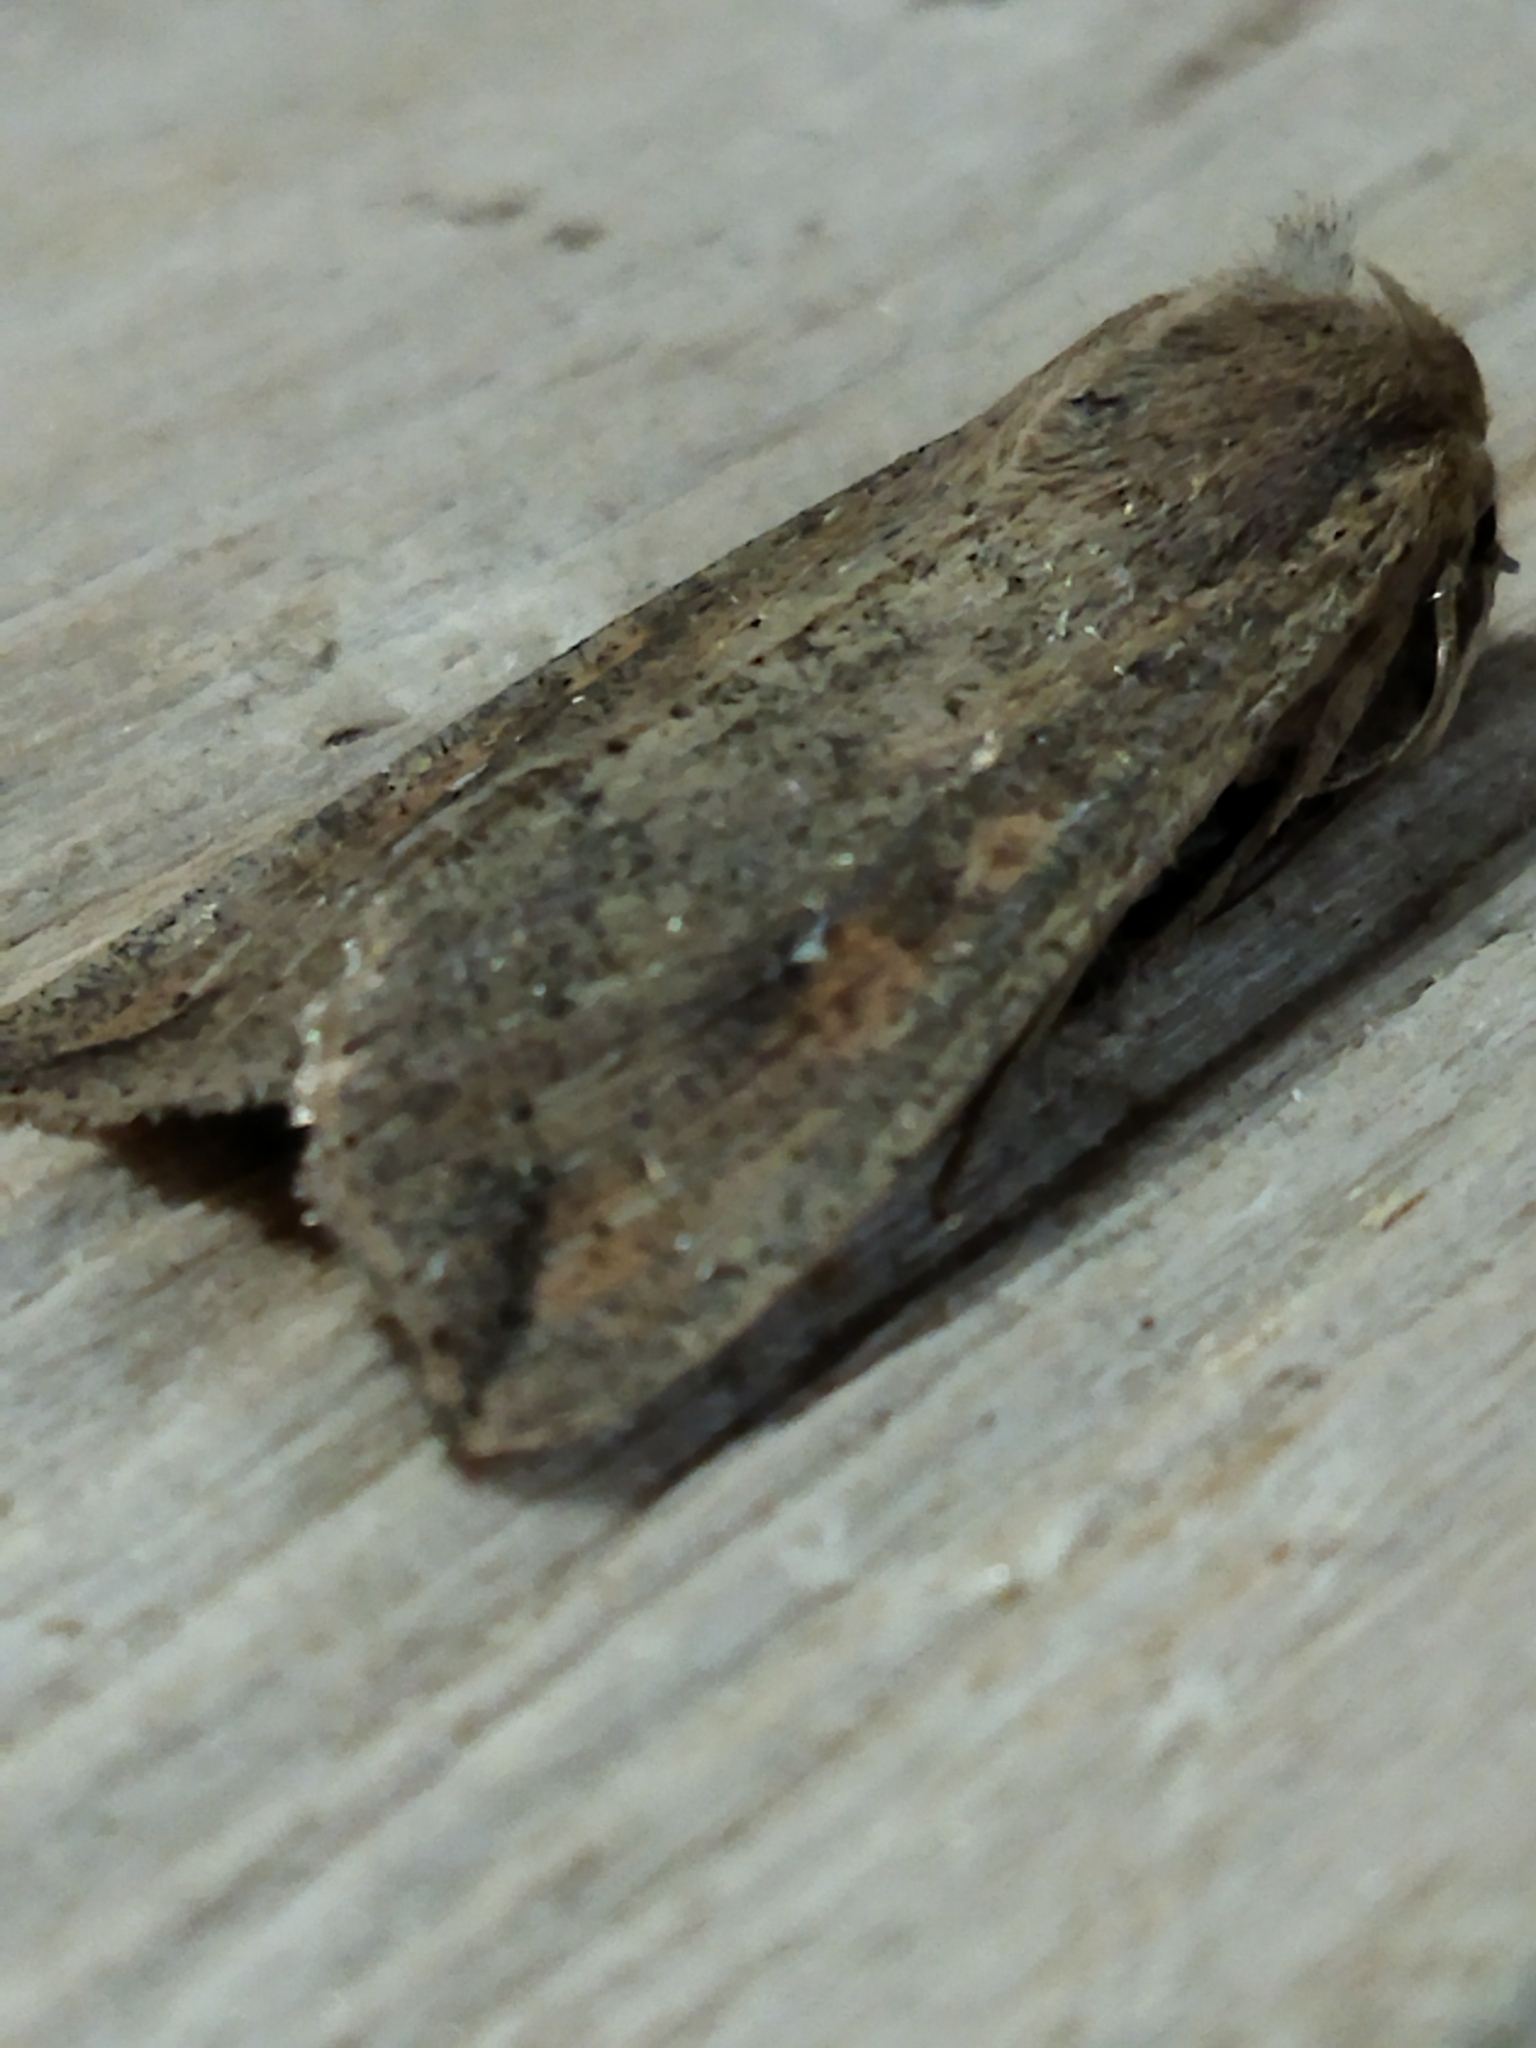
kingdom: Animalia
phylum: Arthropoda
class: Insecta
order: Lepidoptera
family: Noctuidae
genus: Mythimna
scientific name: Mythimna unipuncta
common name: White-speck
